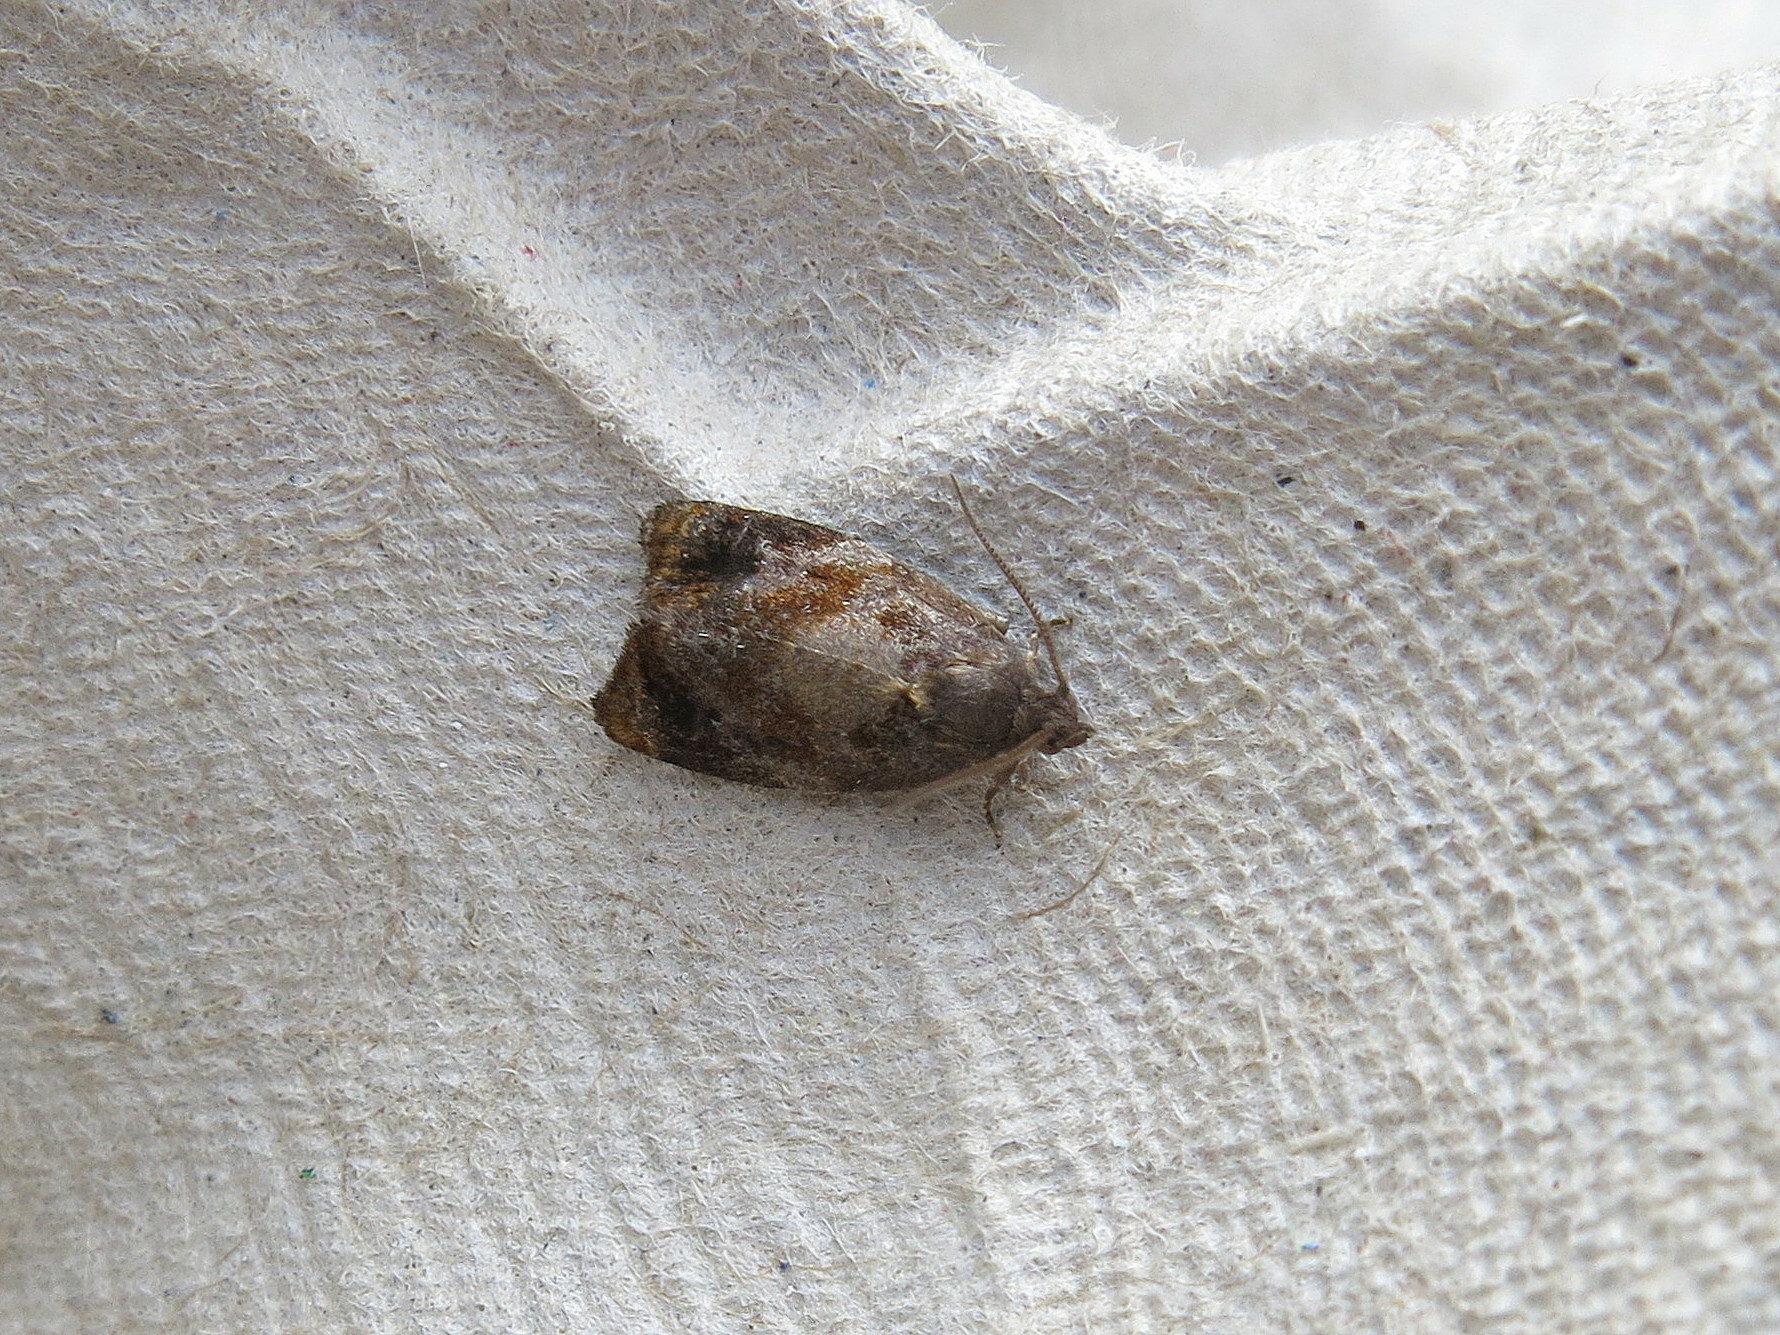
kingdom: Animalia
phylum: Arthropoda
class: Insecta
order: Lepidoptera
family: Tortricidae
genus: Ditula
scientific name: Ditula angustiorana
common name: Red-barred tortrix
